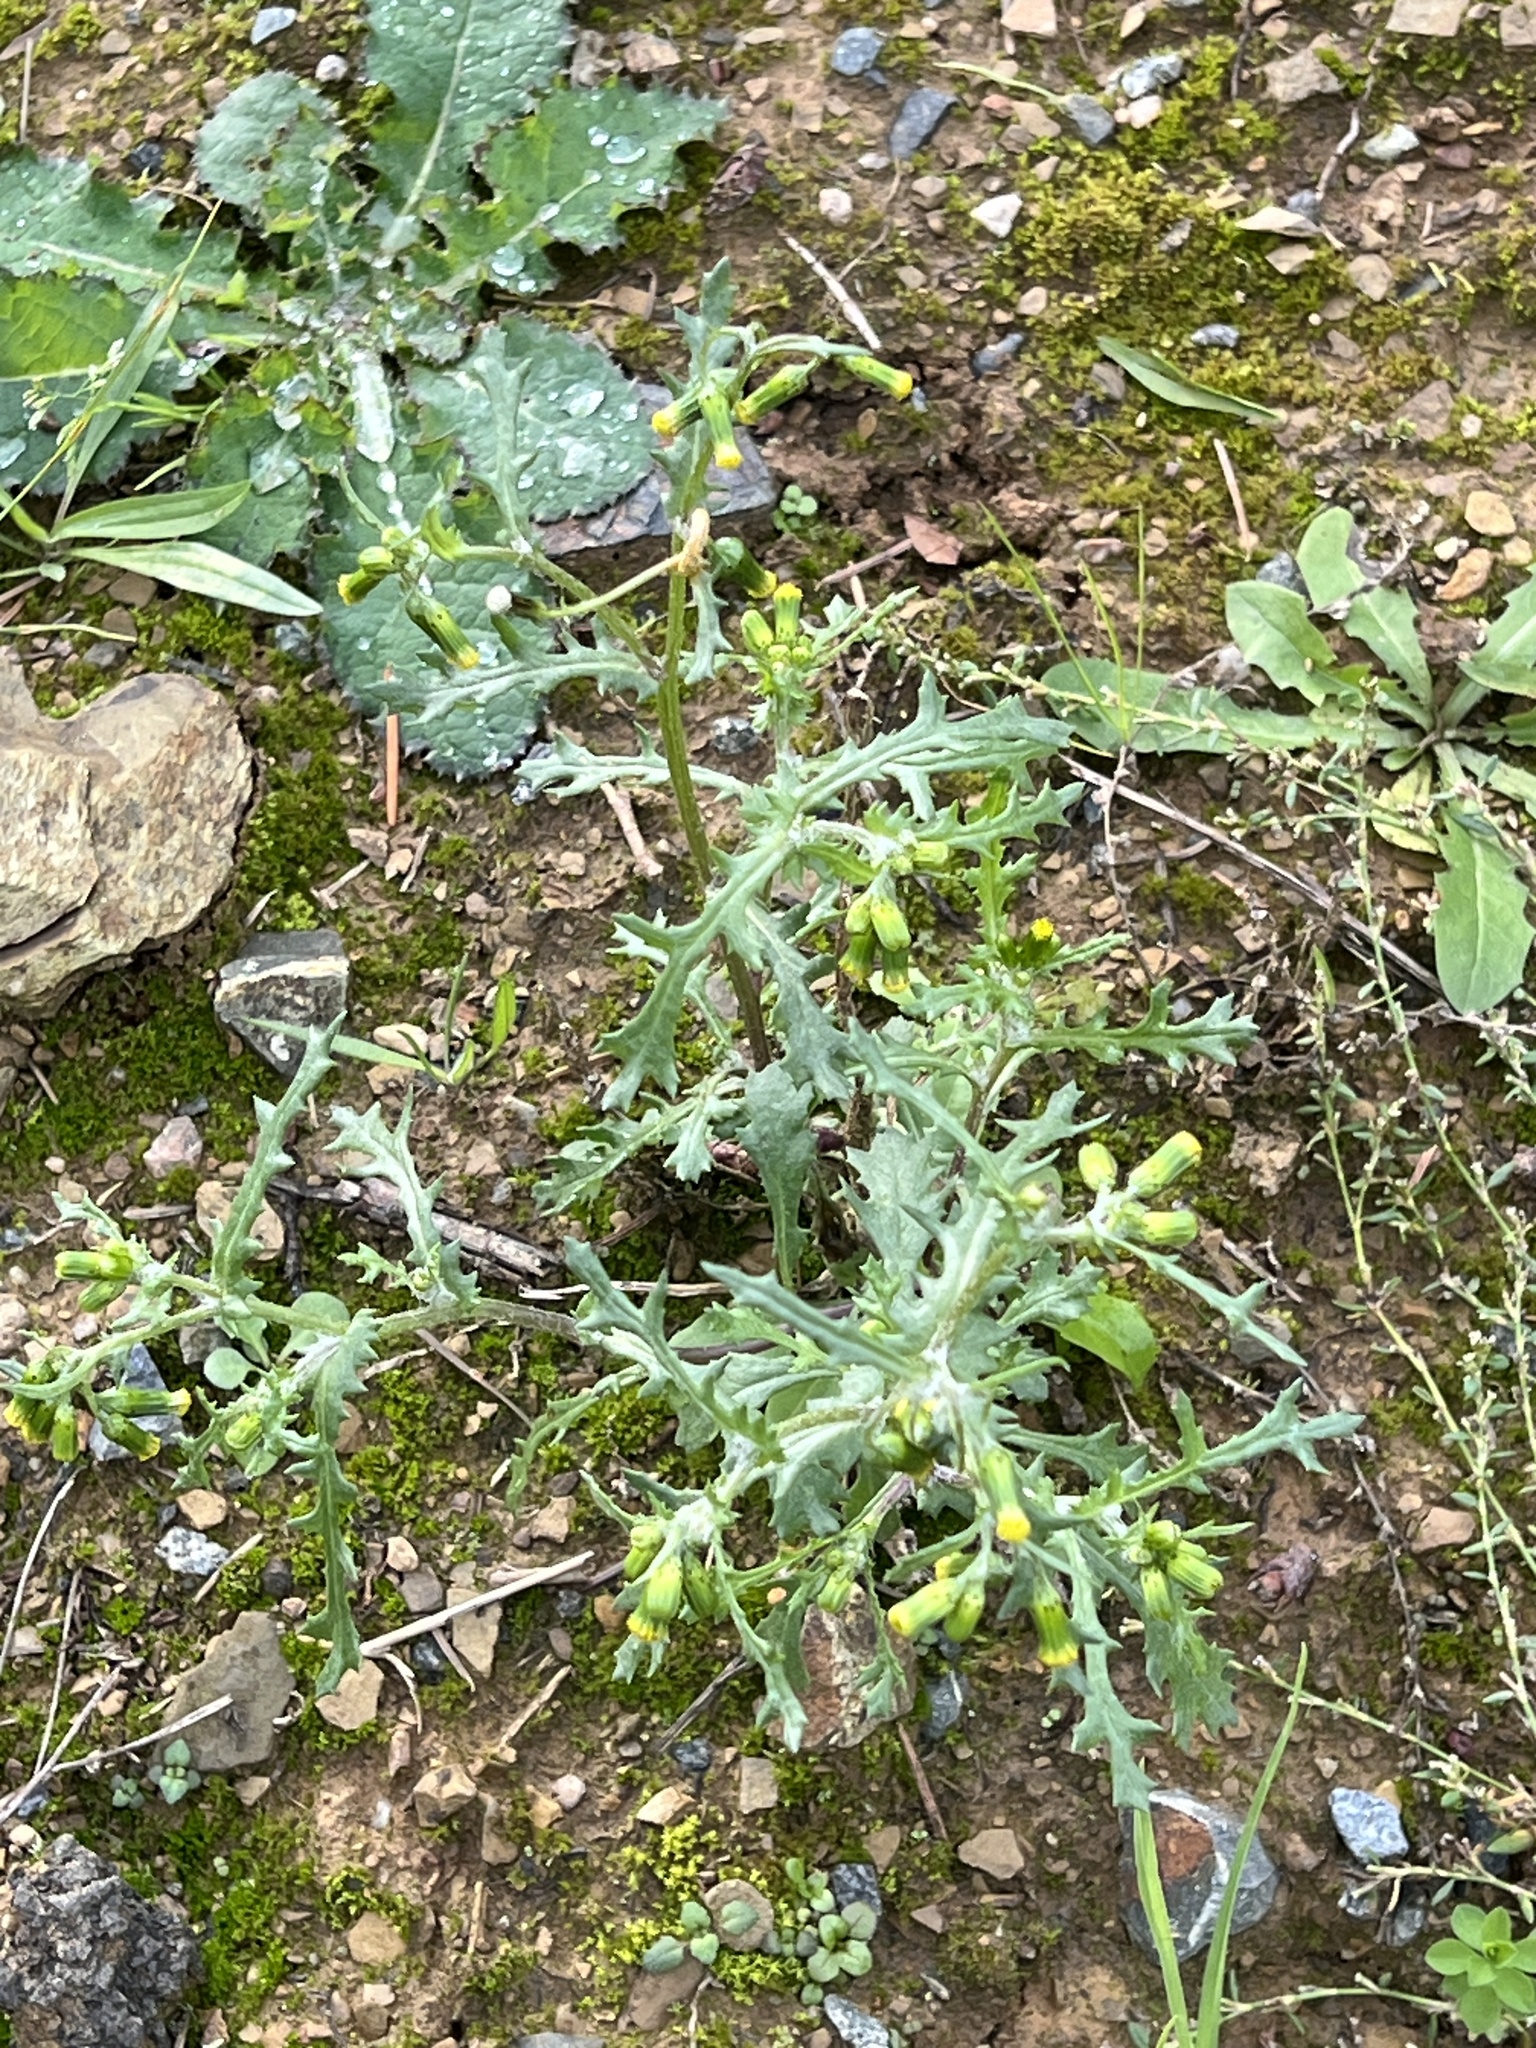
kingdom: Plantae
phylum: Tracheophyta
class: Magnoliopsida
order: Asterales
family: Asteraceae
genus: Senecio
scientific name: Senecio vulgaris
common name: Old-man-in-the-spring
